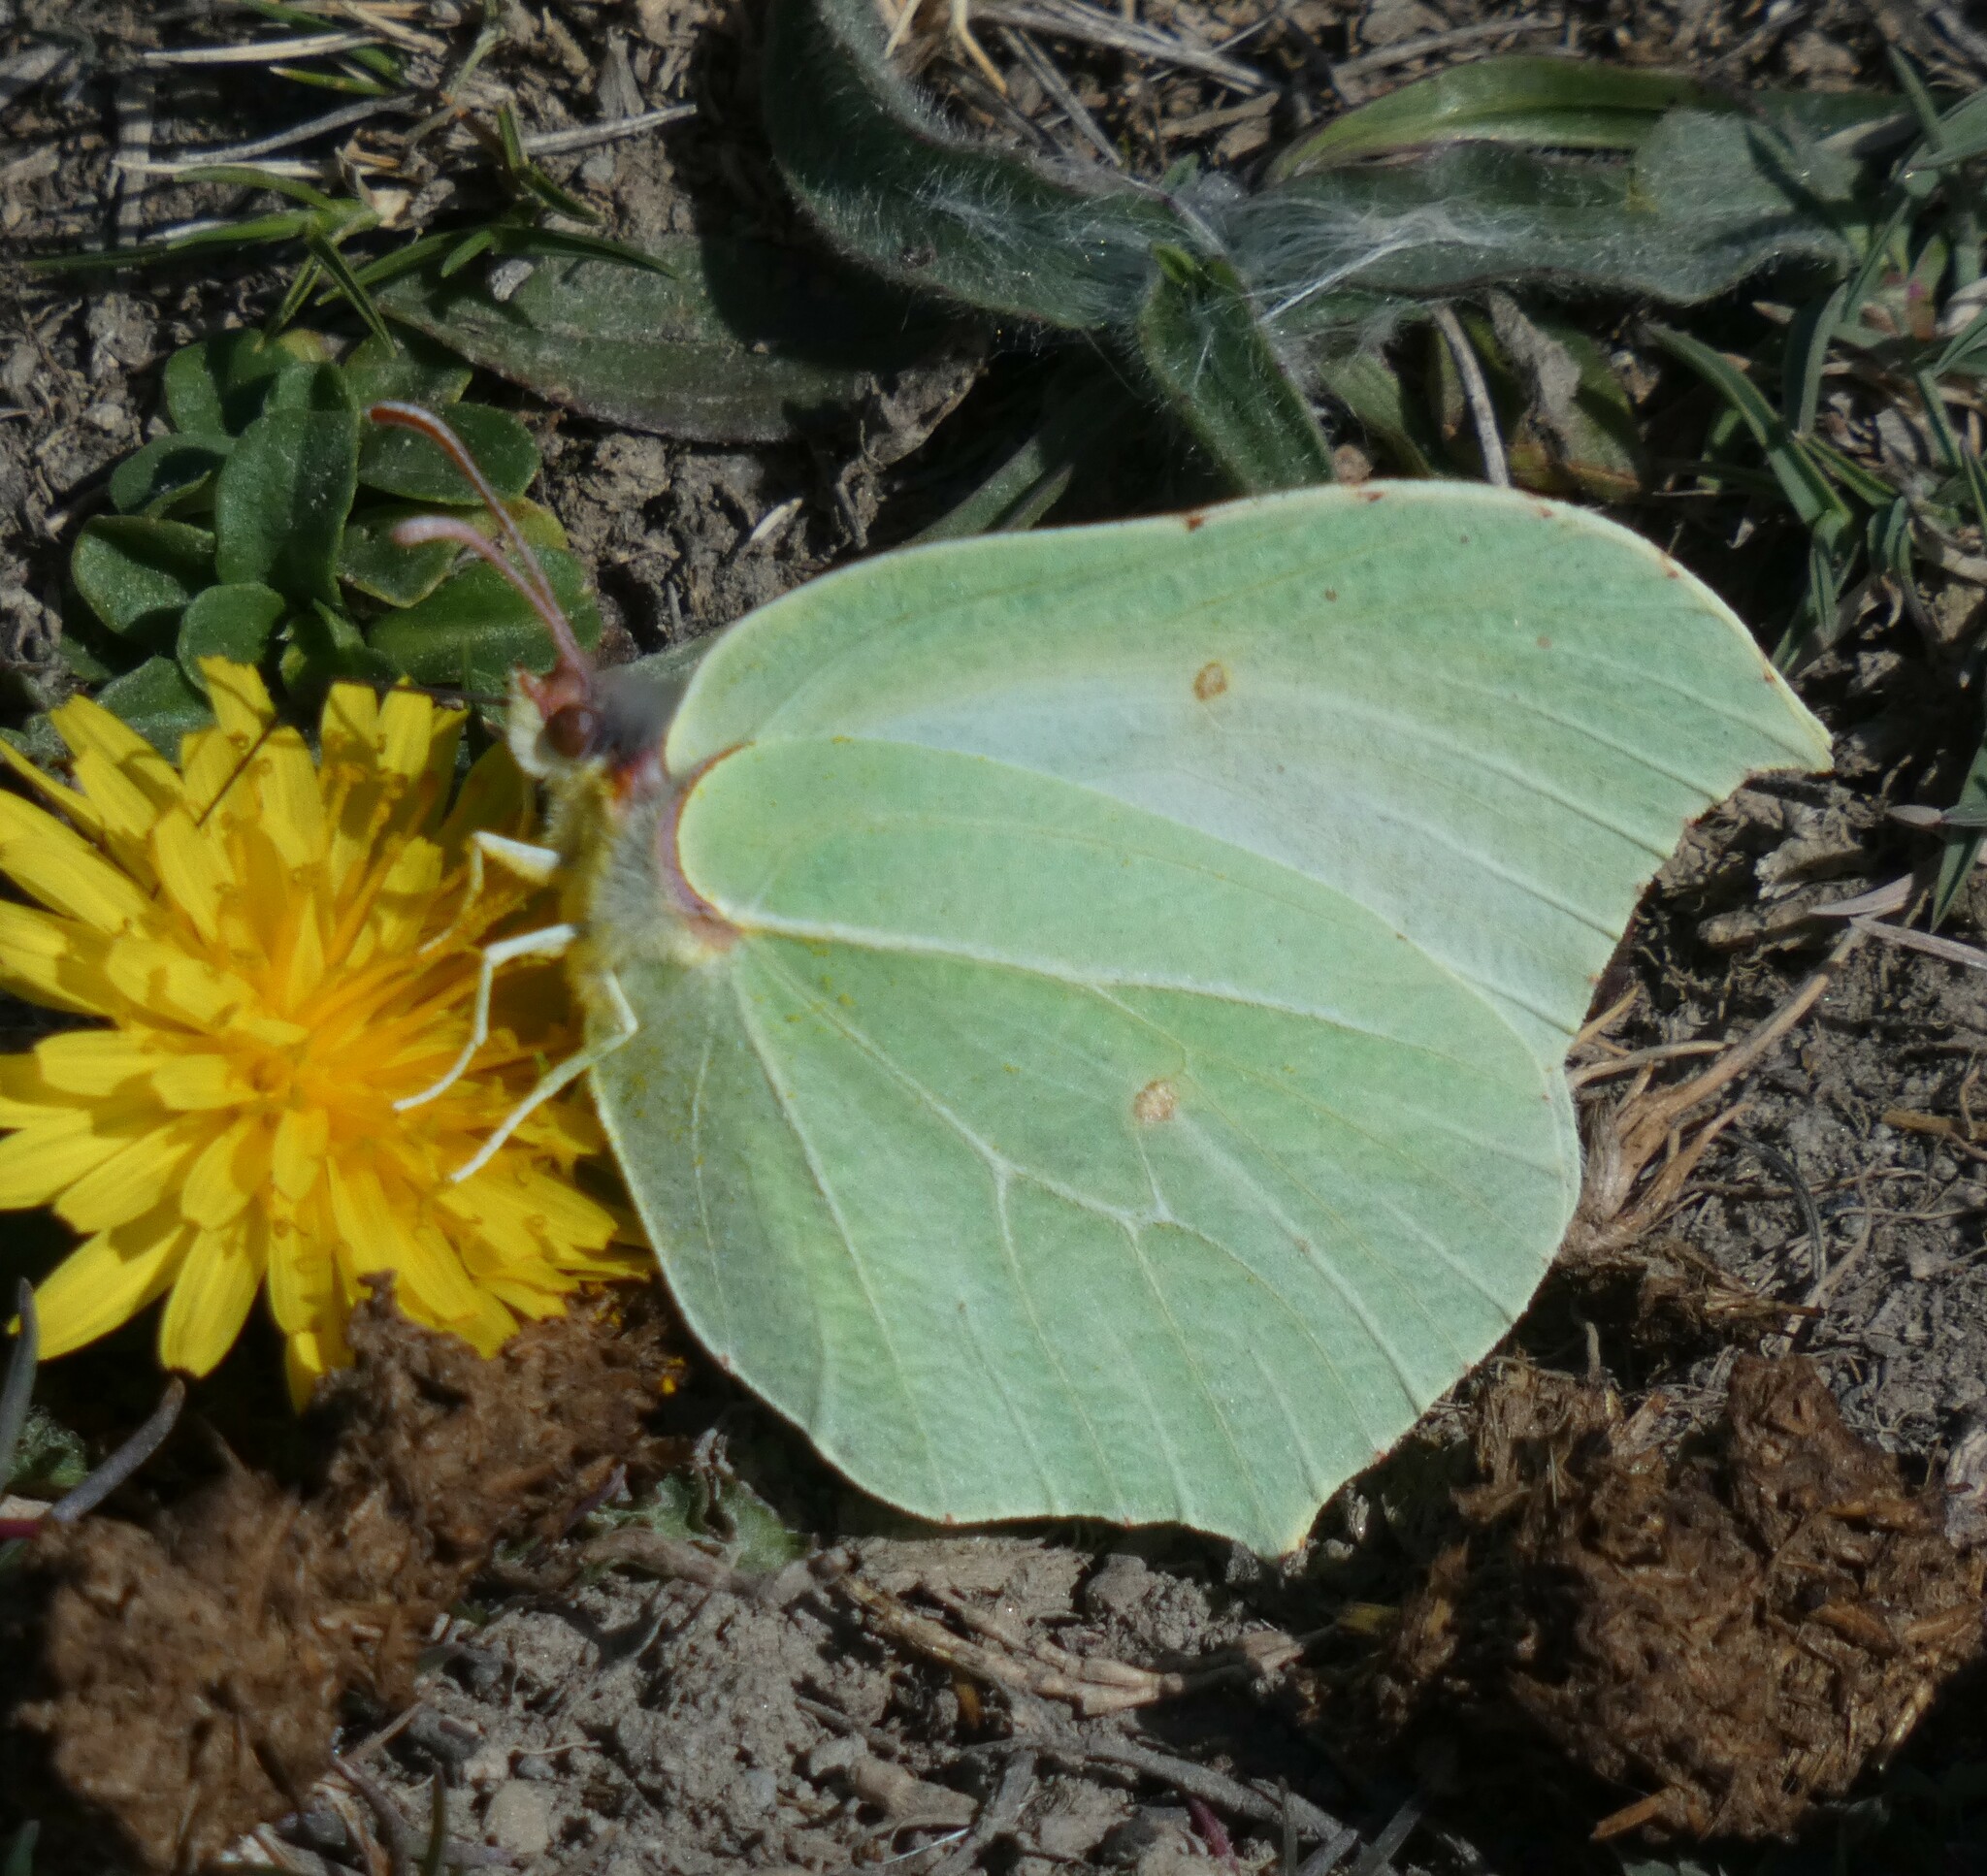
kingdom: Animalia
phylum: Arthropoda
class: Insecta
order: Lepidoptera
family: Pieridae
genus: Gonepteryx
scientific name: Gonepteryx rhamni
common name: Brimstone
